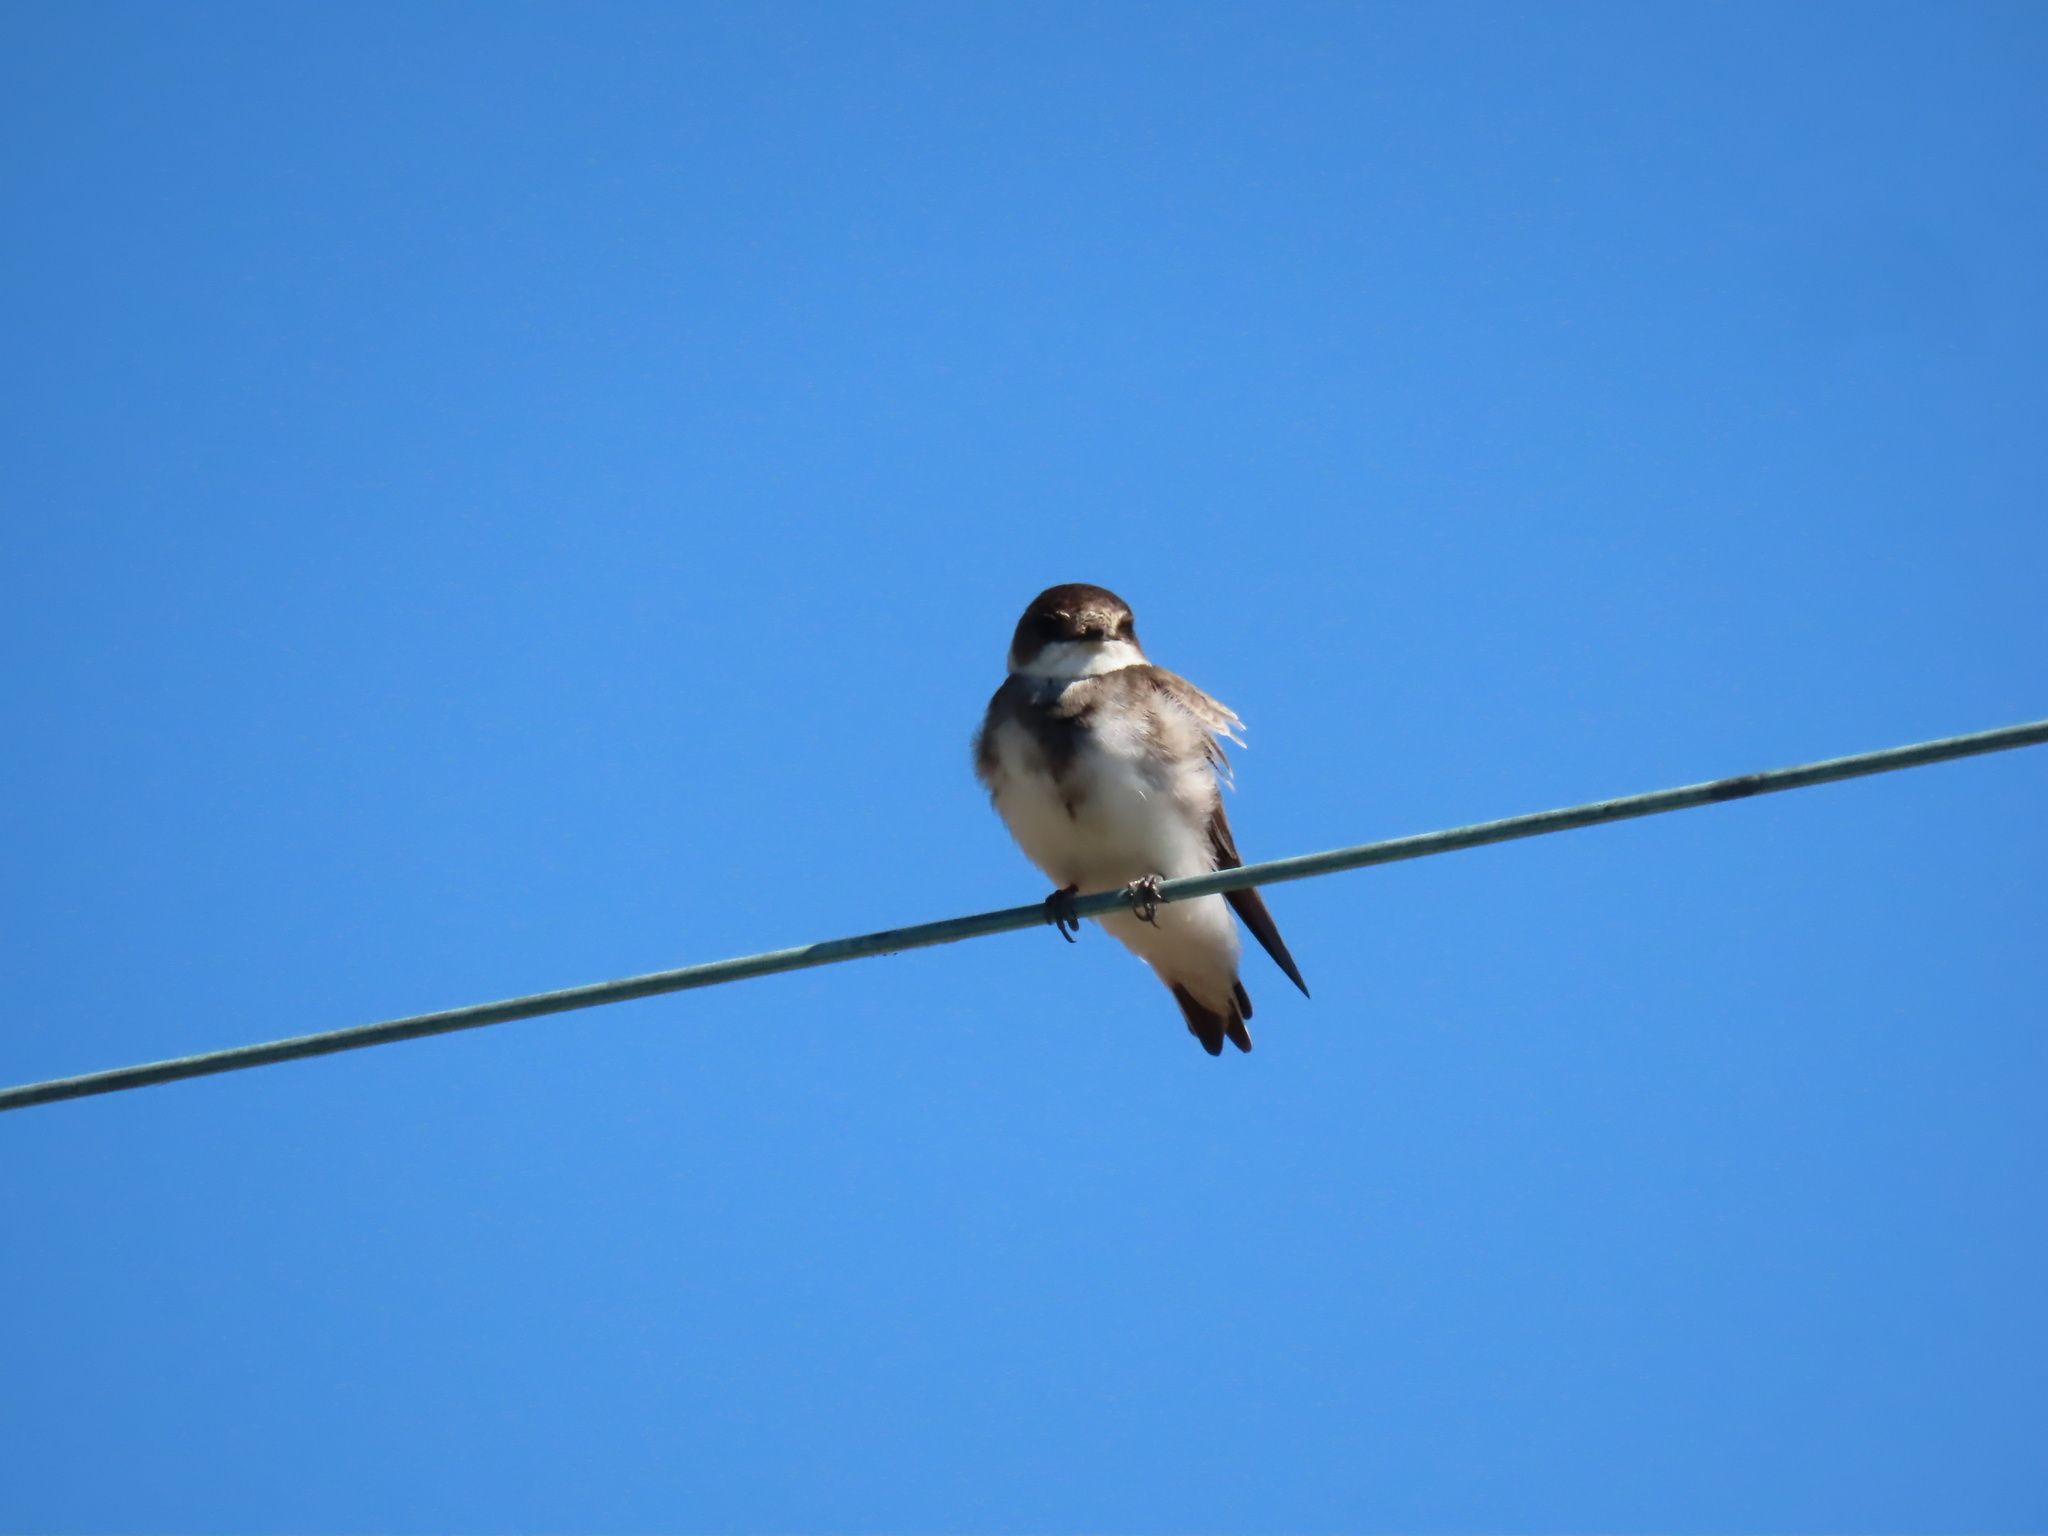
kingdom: Animalia
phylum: Chordata
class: Aves
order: Passeriformes
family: Hirundinidae
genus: Riparia
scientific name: Riparia riparia
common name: Sand martin
